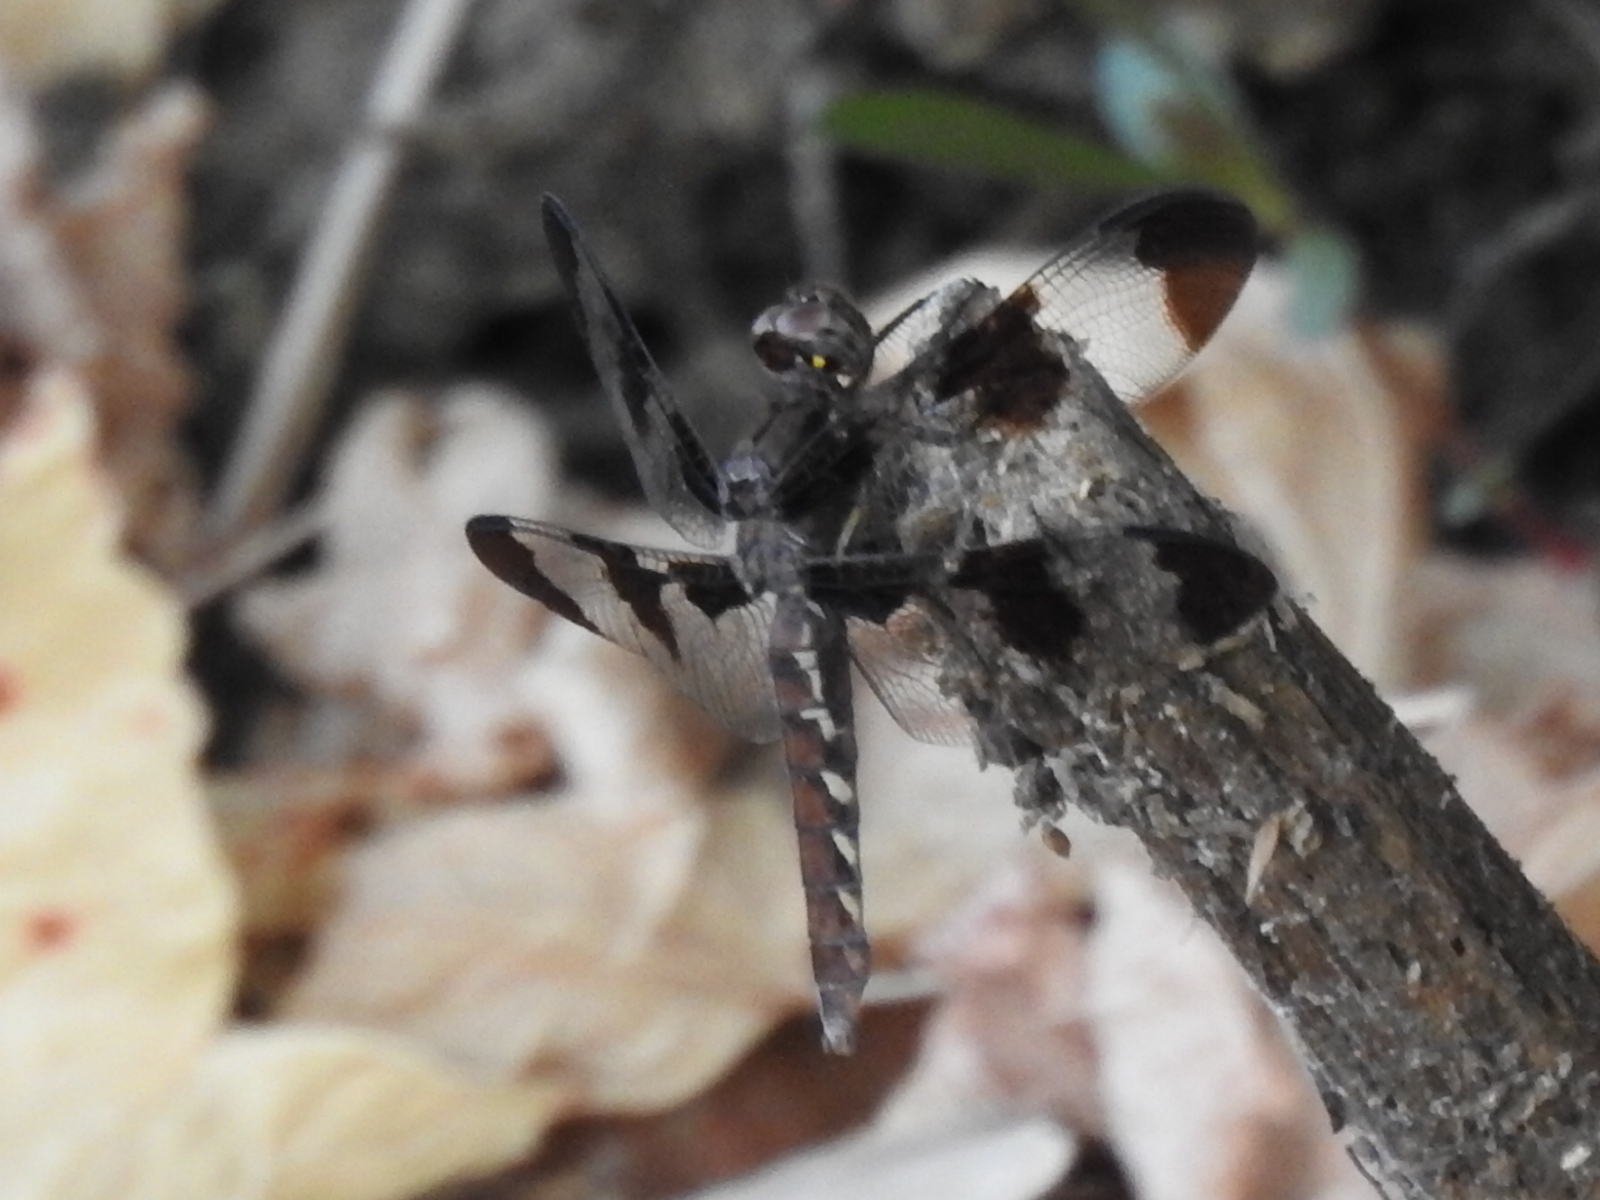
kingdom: Animalia
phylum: Arthropoda
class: Insecta
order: Odonata
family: Libellulidae
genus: Plathemis
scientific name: Plathemis lydia
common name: Common whitetail
